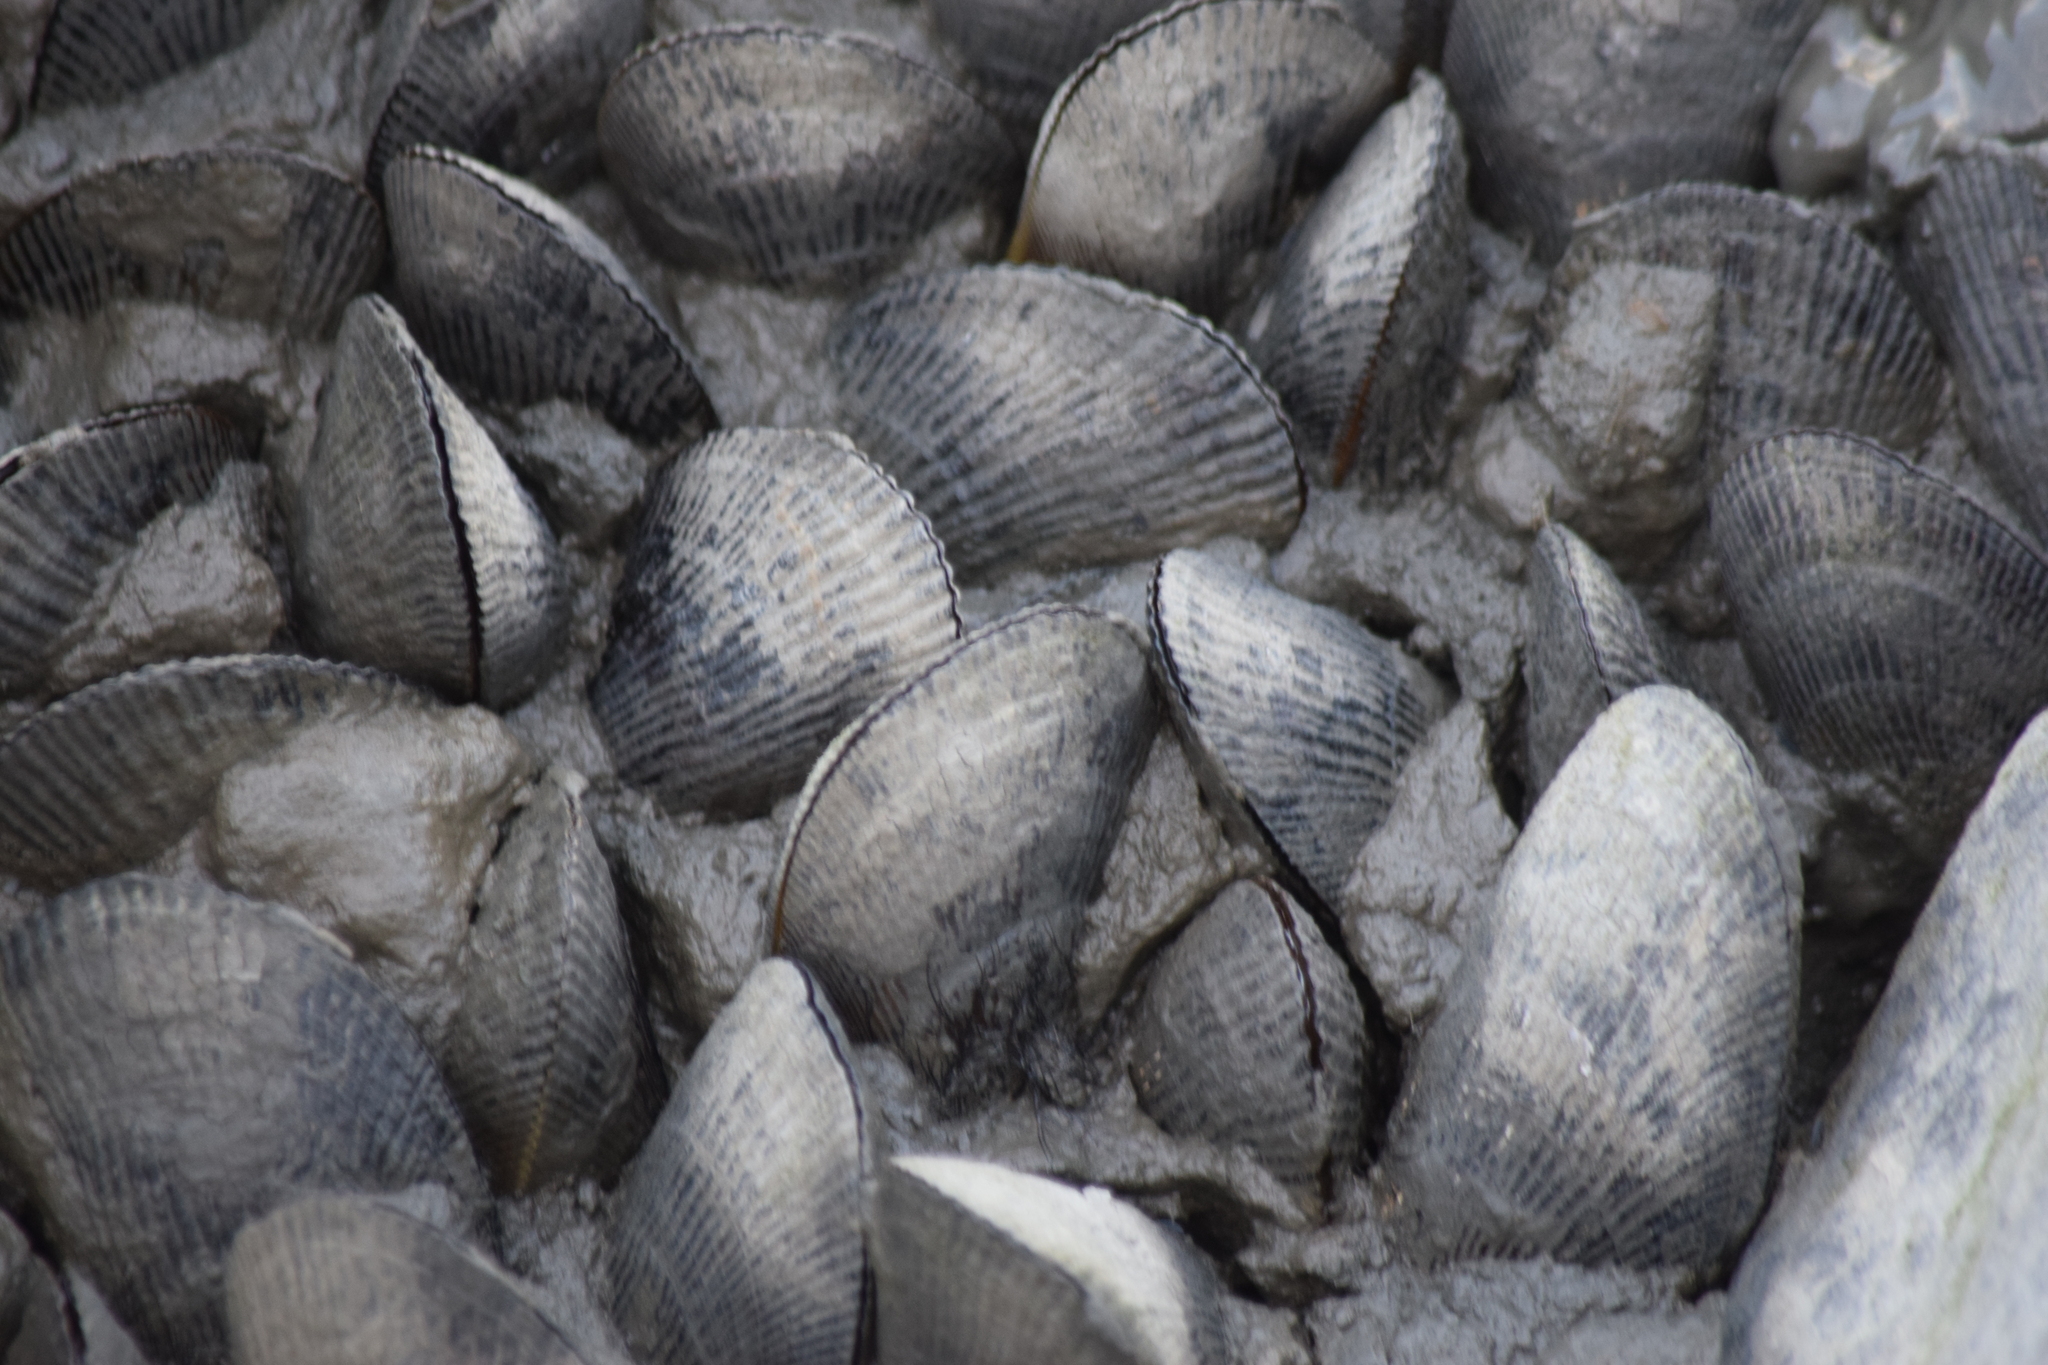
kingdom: Animalia
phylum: Mollusca
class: Bivalvia
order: Mytilida
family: Mytilidae
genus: Geukensia
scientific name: Geukensia demissa
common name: Ribbed mussel
